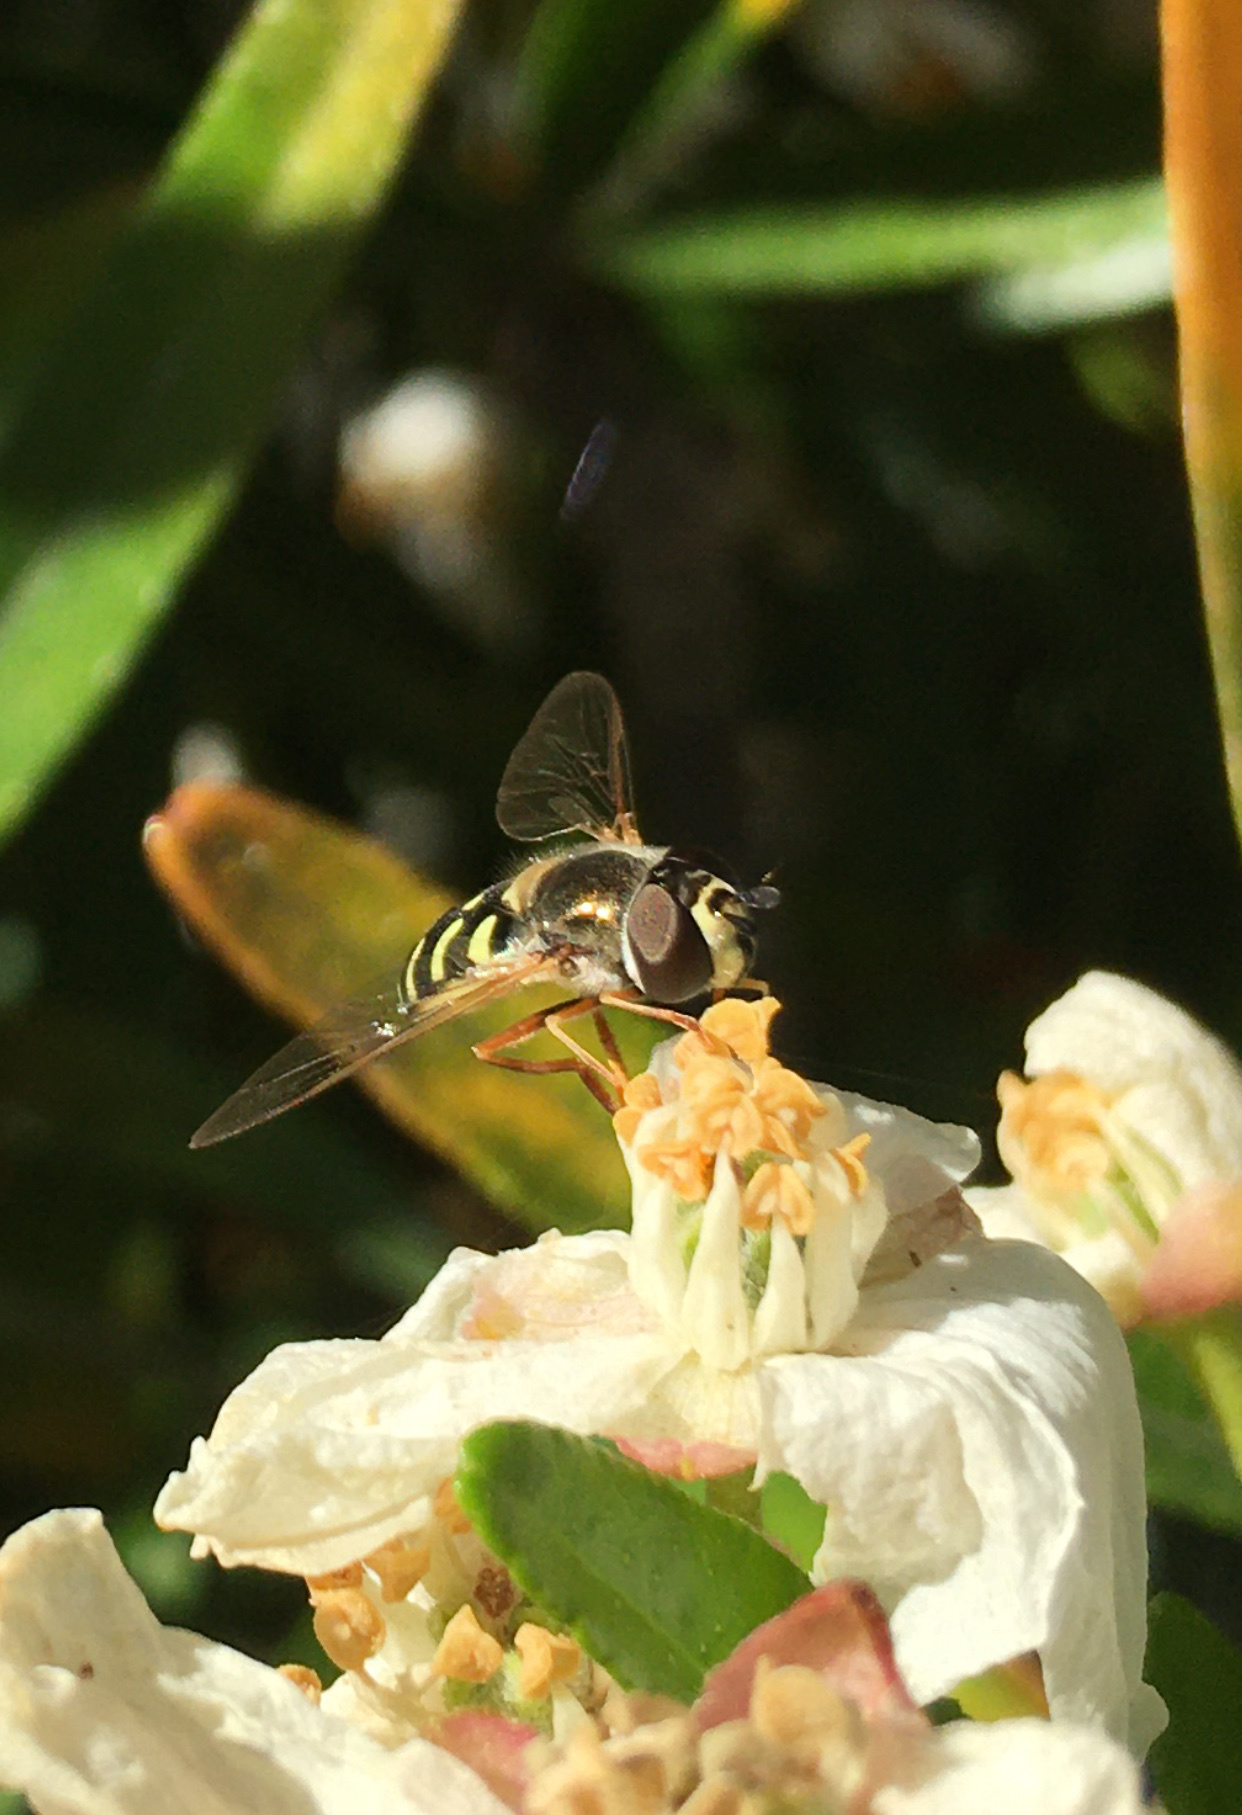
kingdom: Animalia
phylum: Arthropoda
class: Insecta
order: Diptera
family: Syrphidae
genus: Eupeodes
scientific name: Eupeodes volucris
